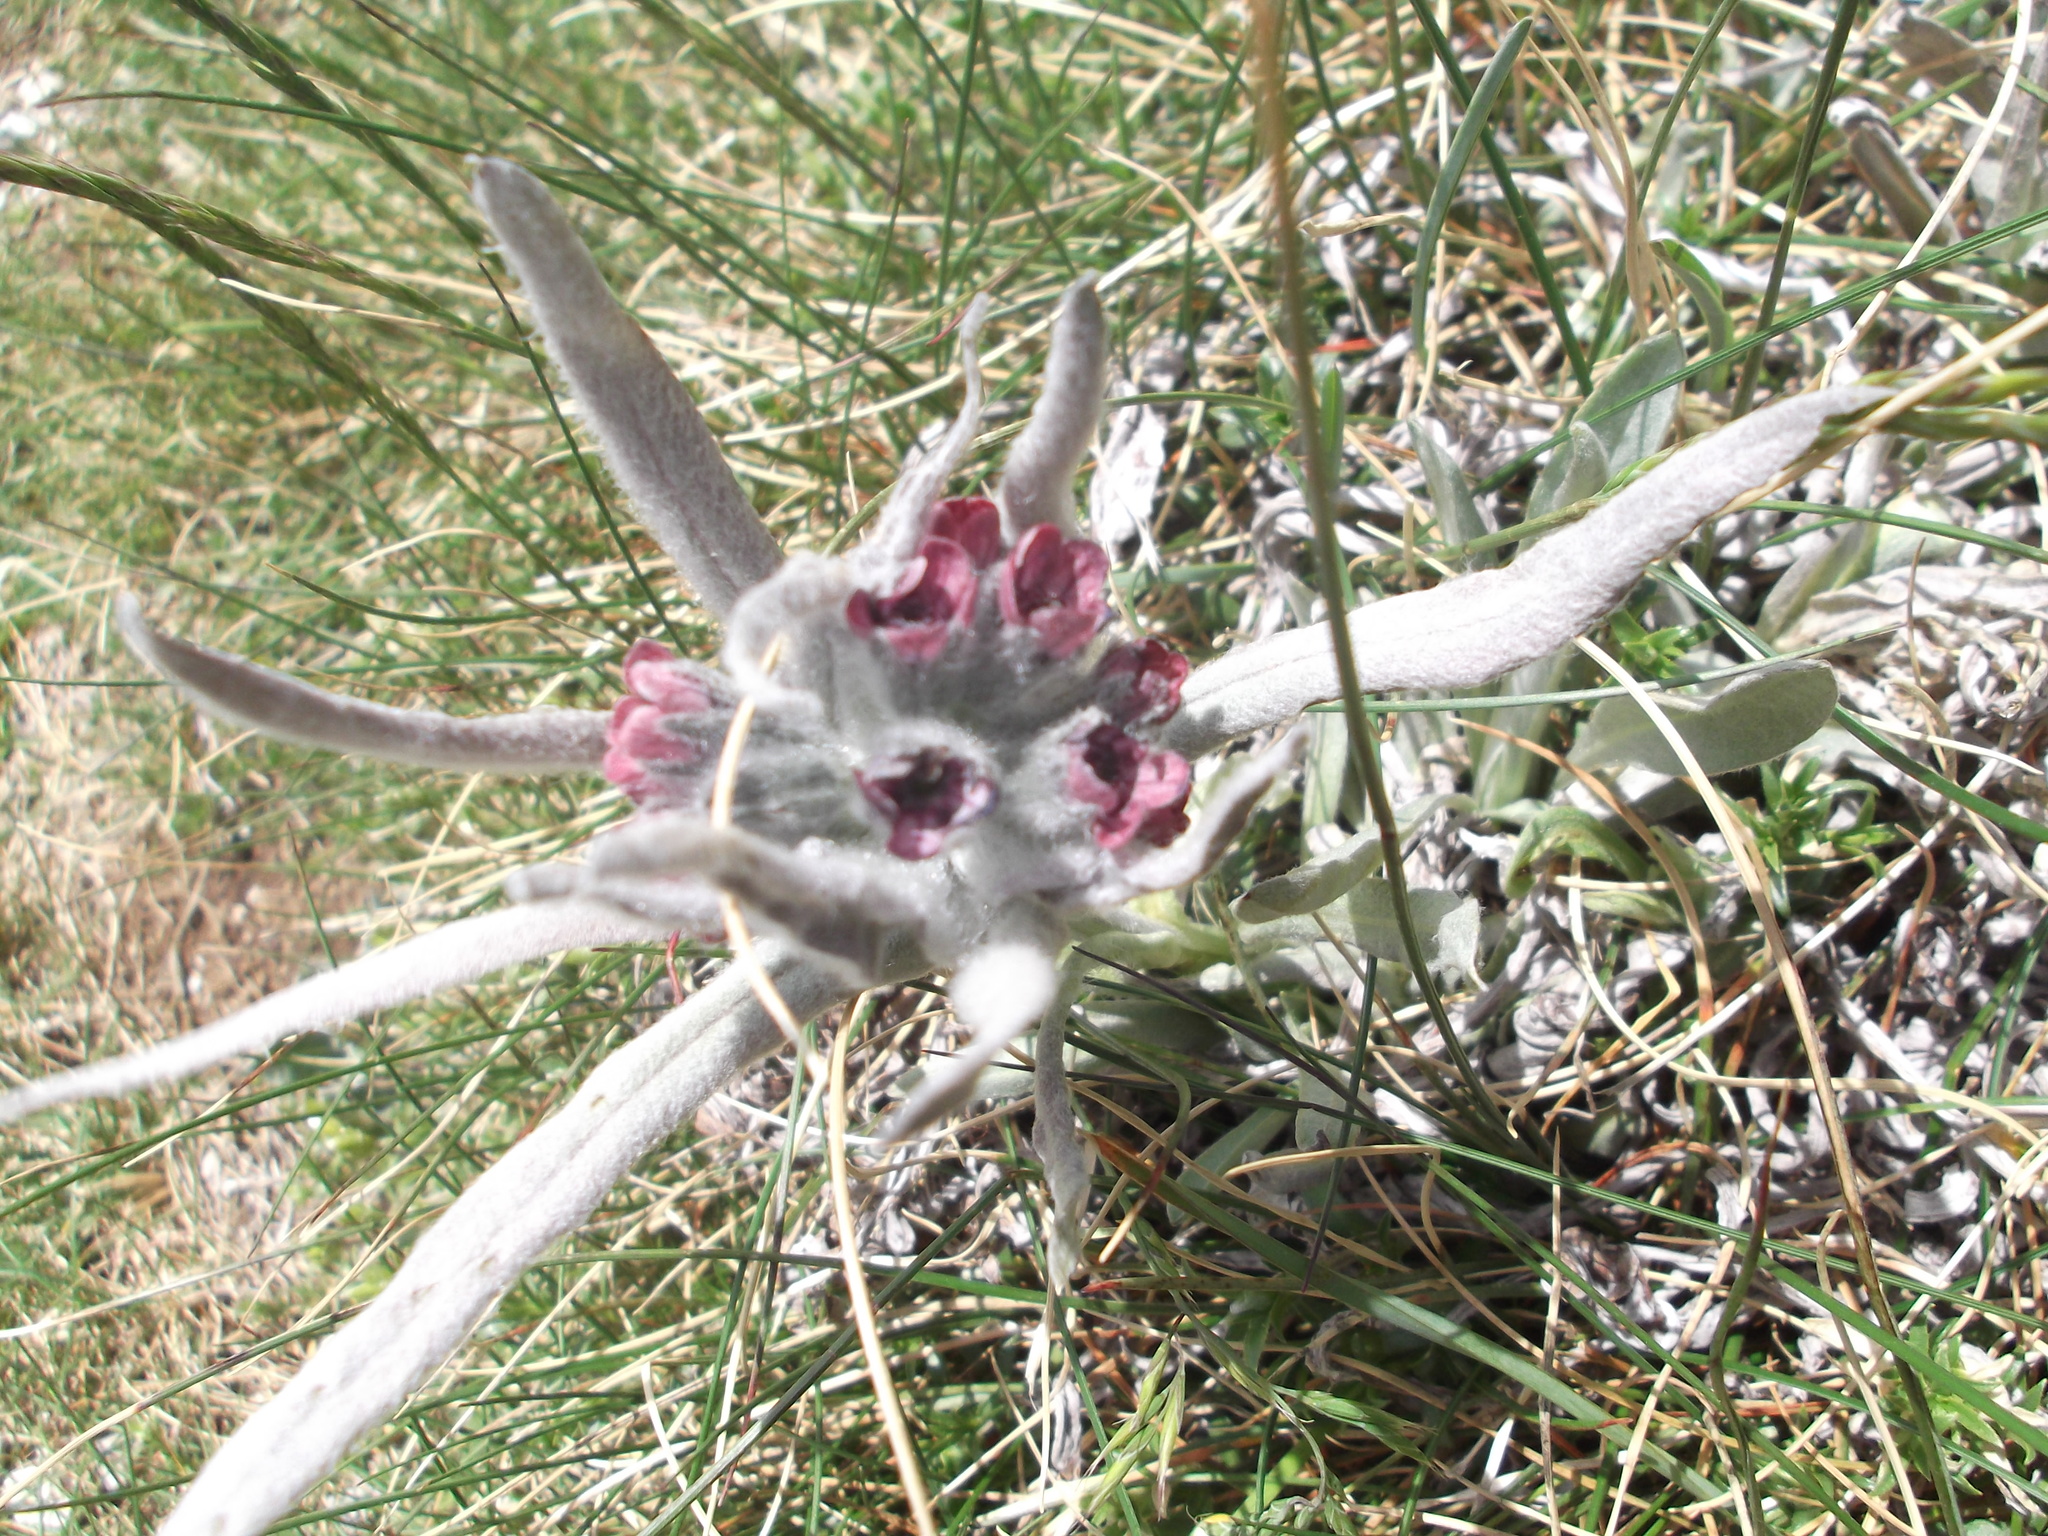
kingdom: Plantae
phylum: Tracheophyta
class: Magnoliopsida
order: Boraginales
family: Boraginaceae
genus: Rindera
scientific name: Rindera magellensis
